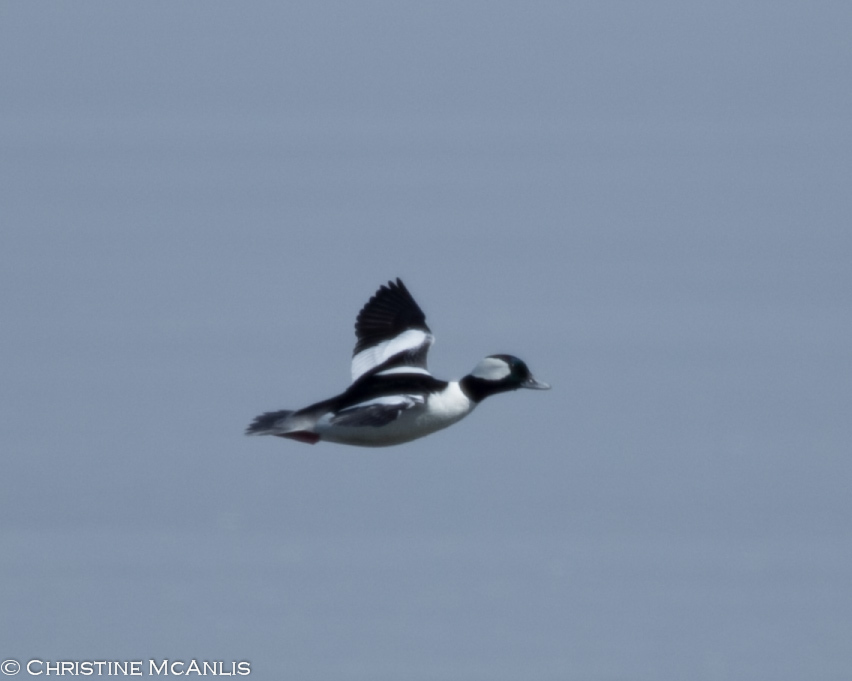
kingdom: Animalia
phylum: Chordata
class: Aves
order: Anseriformes
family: Anatidae
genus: Bucephala
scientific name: Bucephala albeola
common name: Bufflehead
